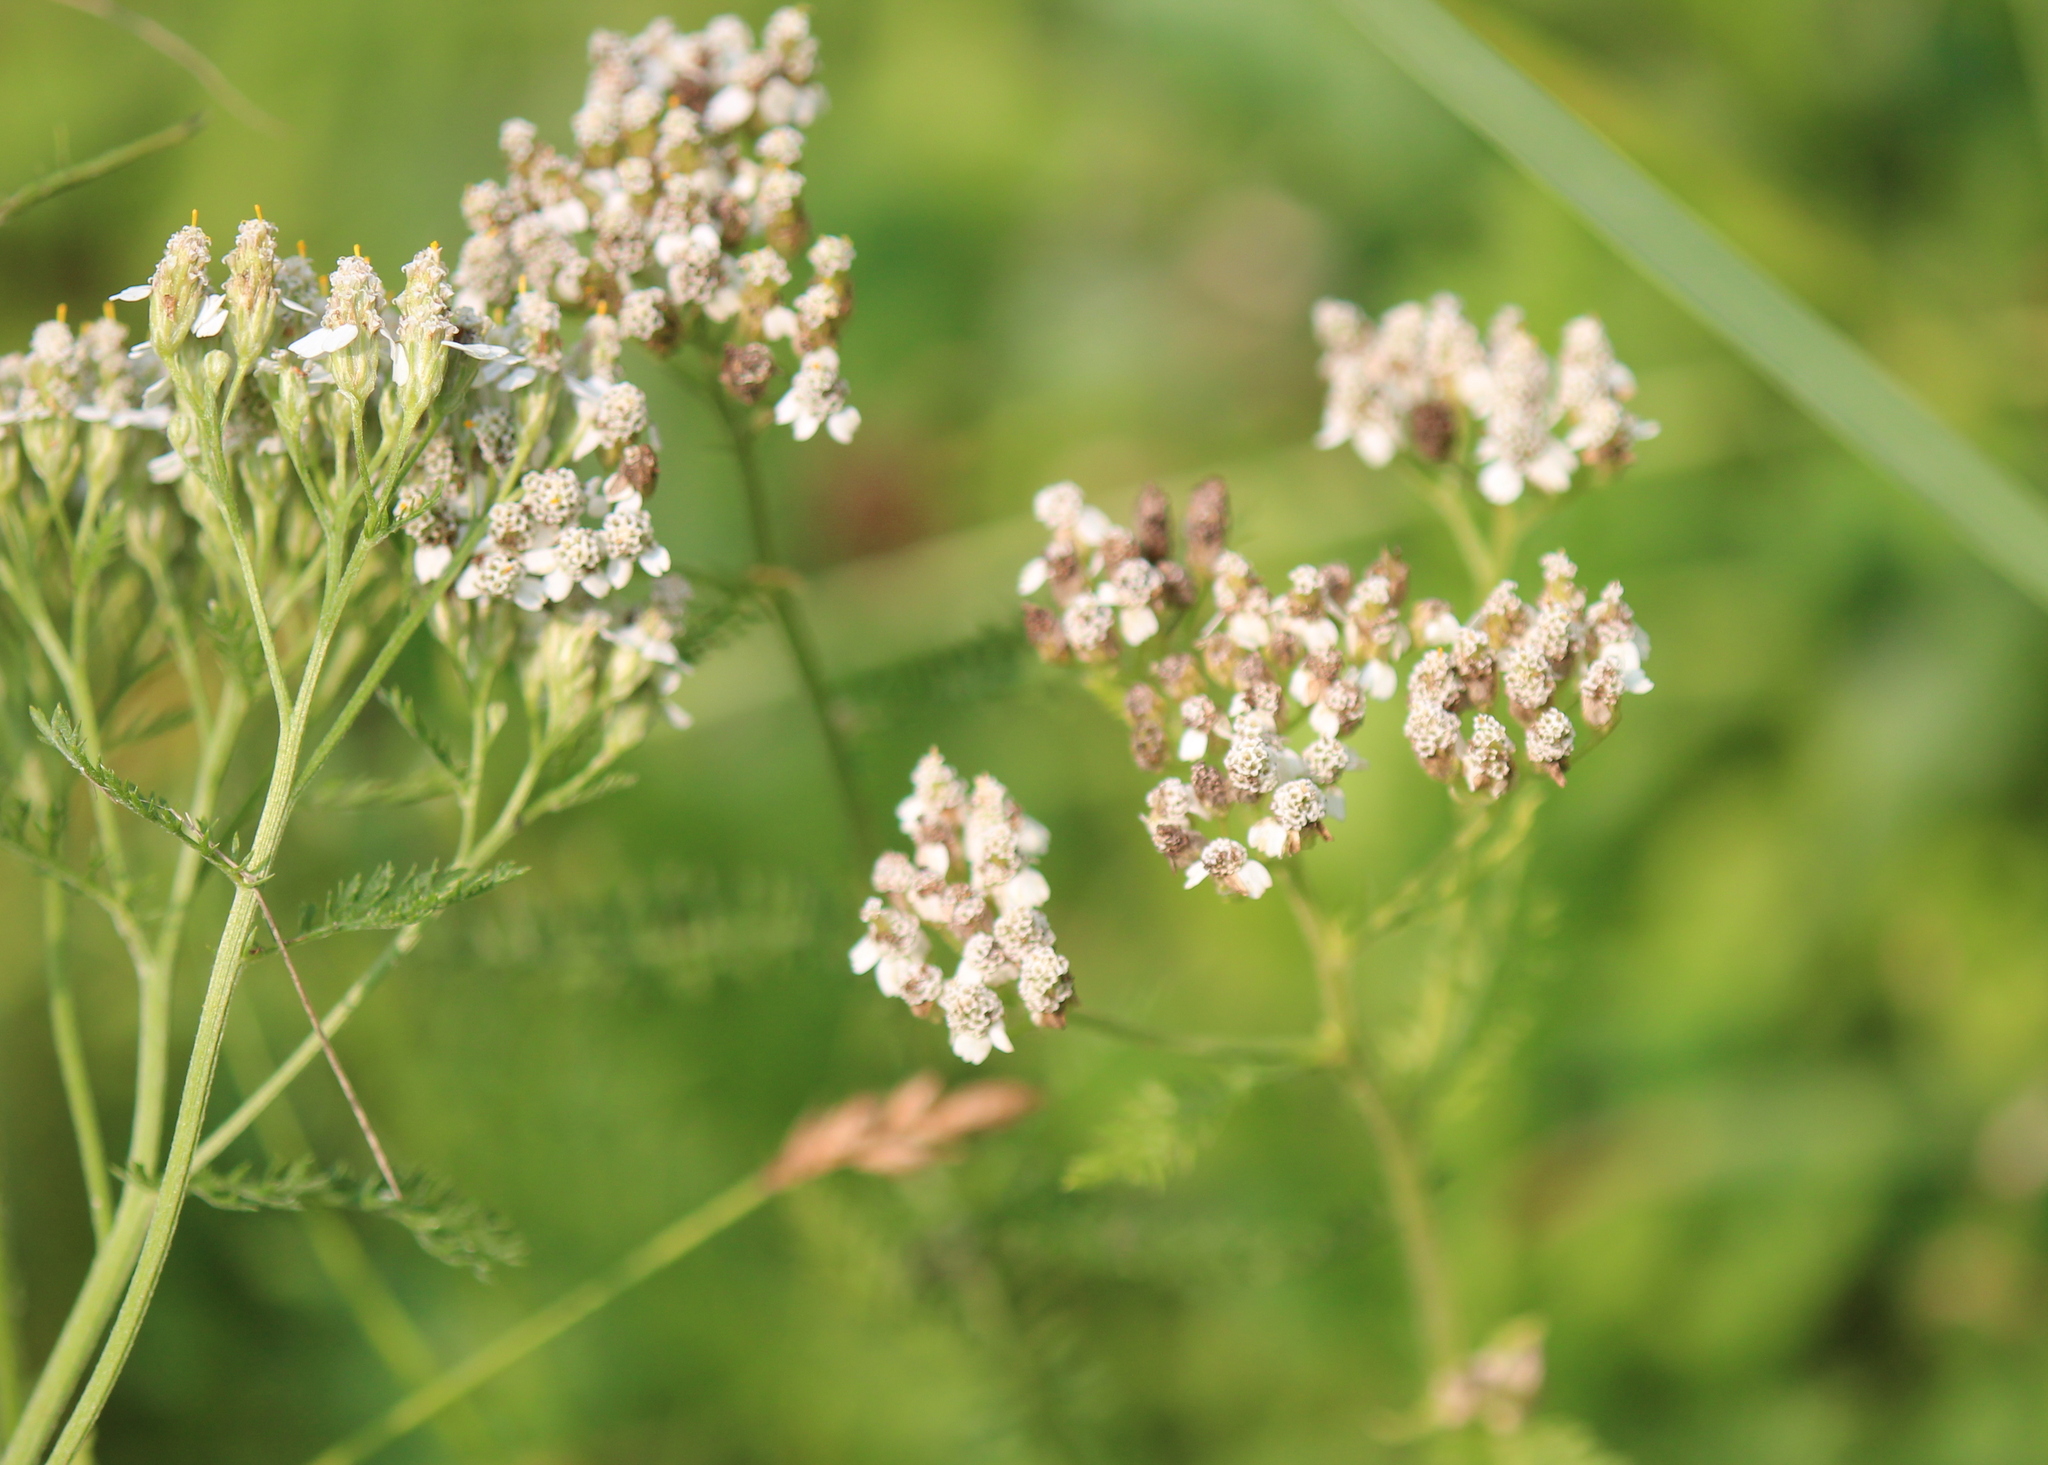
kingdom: Plantae
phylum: Tracheophyta
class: Magnoliopsida
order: Asterales
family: Asteraceae
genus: Achillea
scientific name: Achillea millefolium
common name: Yarrow
